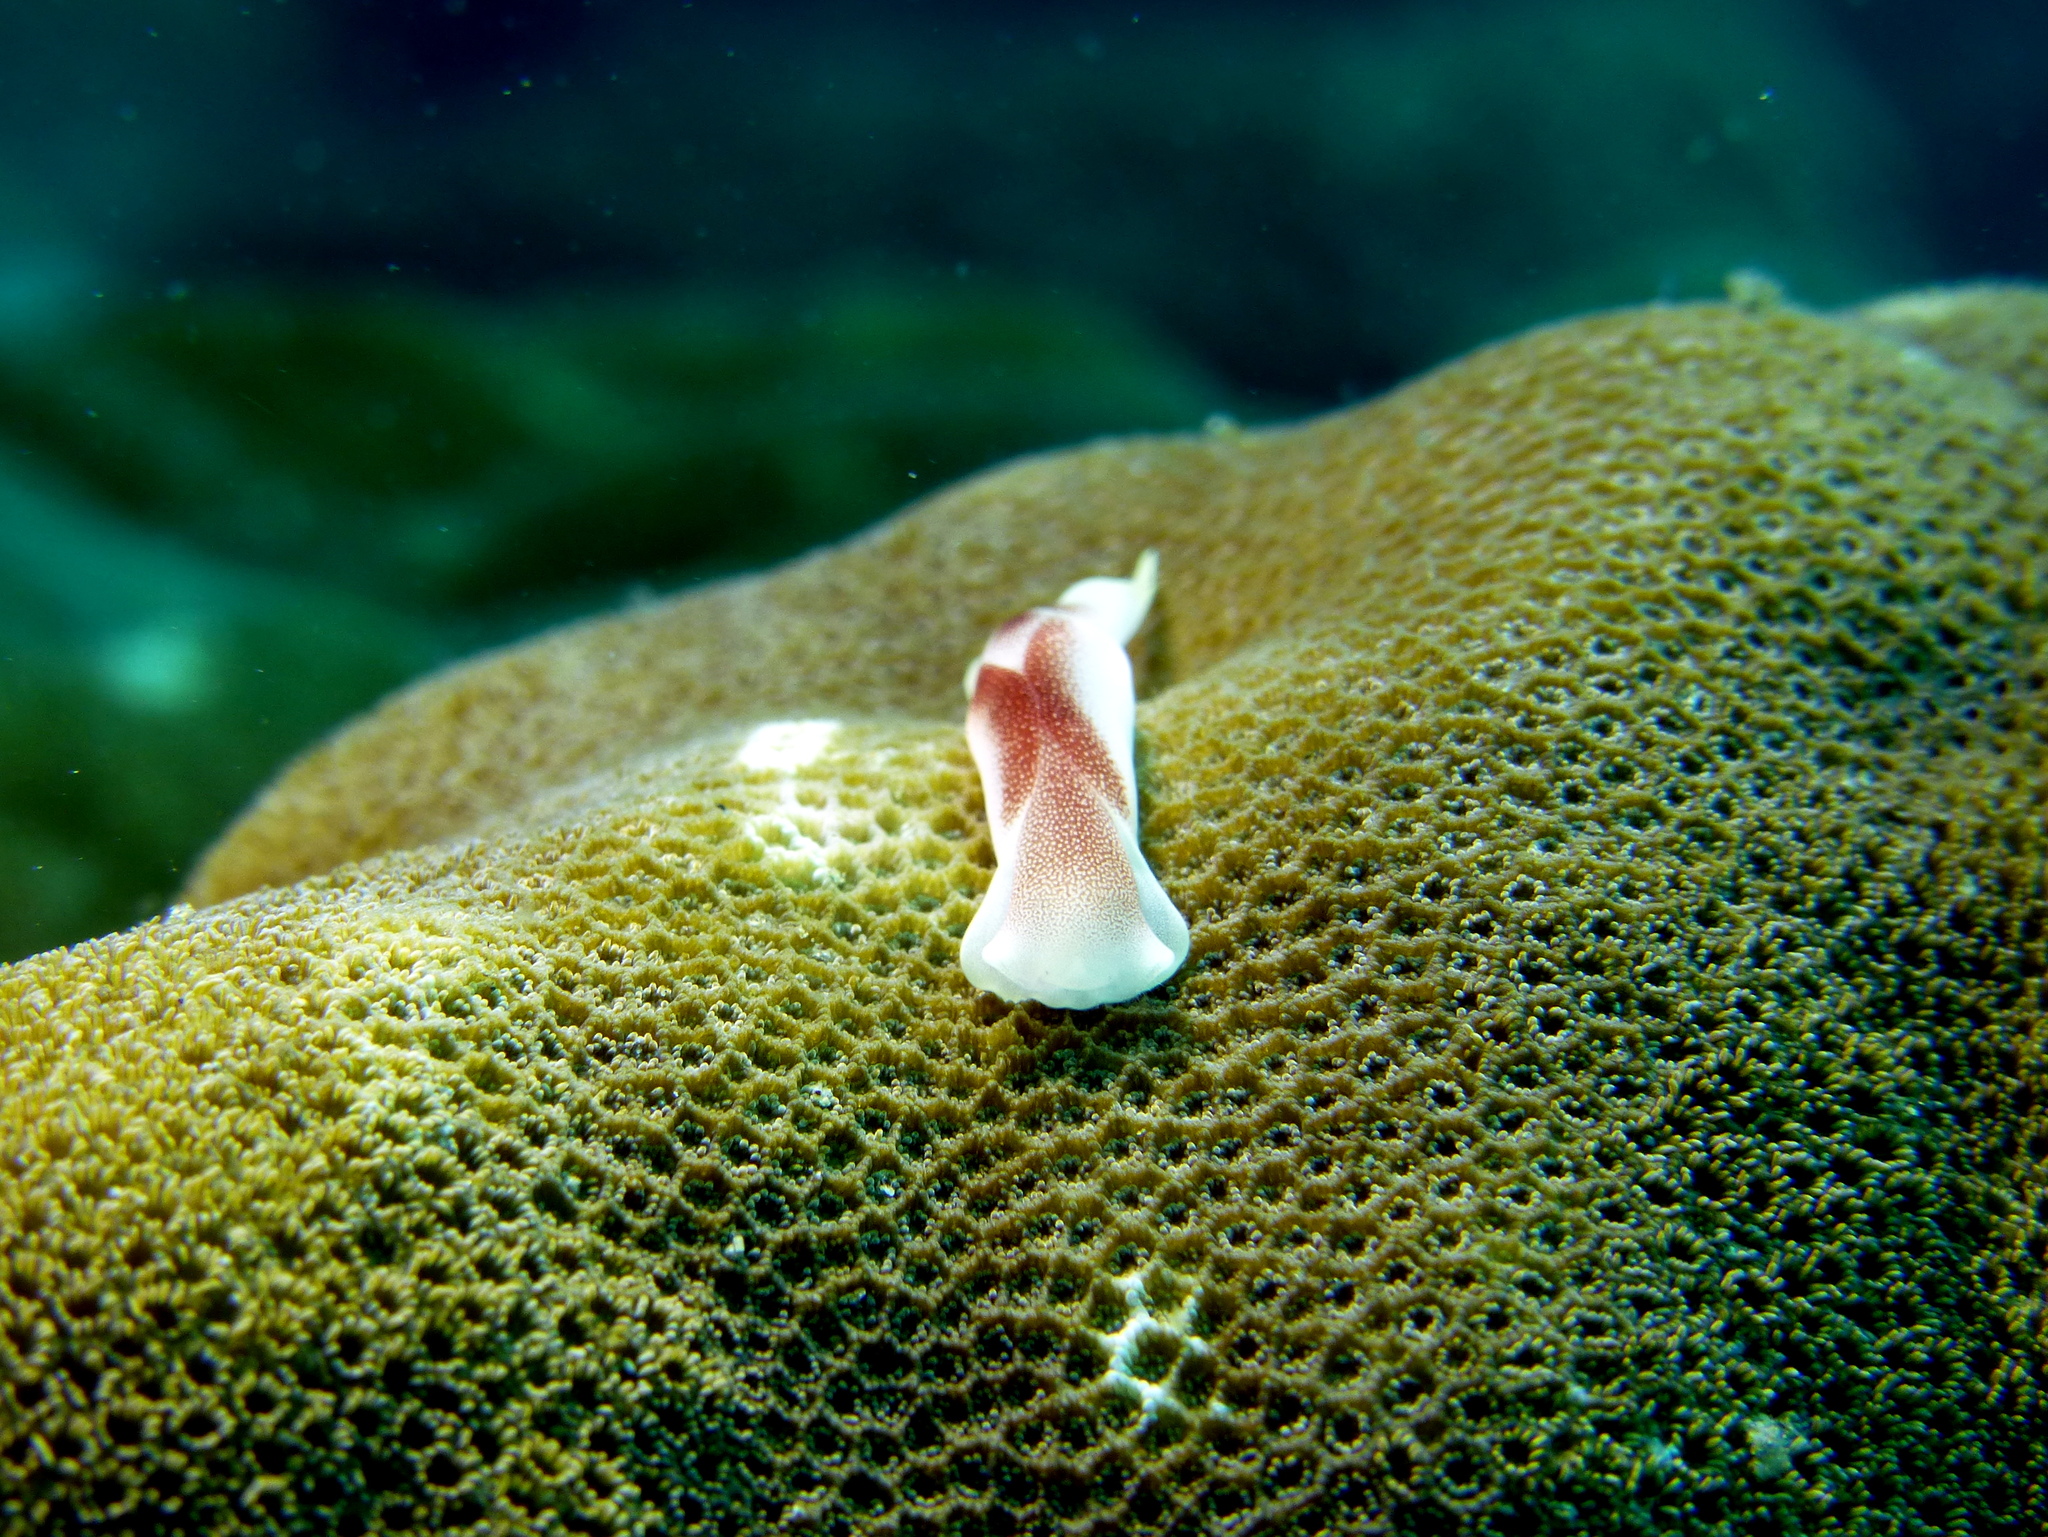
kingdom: Animalia
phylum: Mollusca
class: Gastropoda
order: Cephalaspidea
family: Aglajidae
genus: Chelidonura
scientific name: Chelidonura amoena
